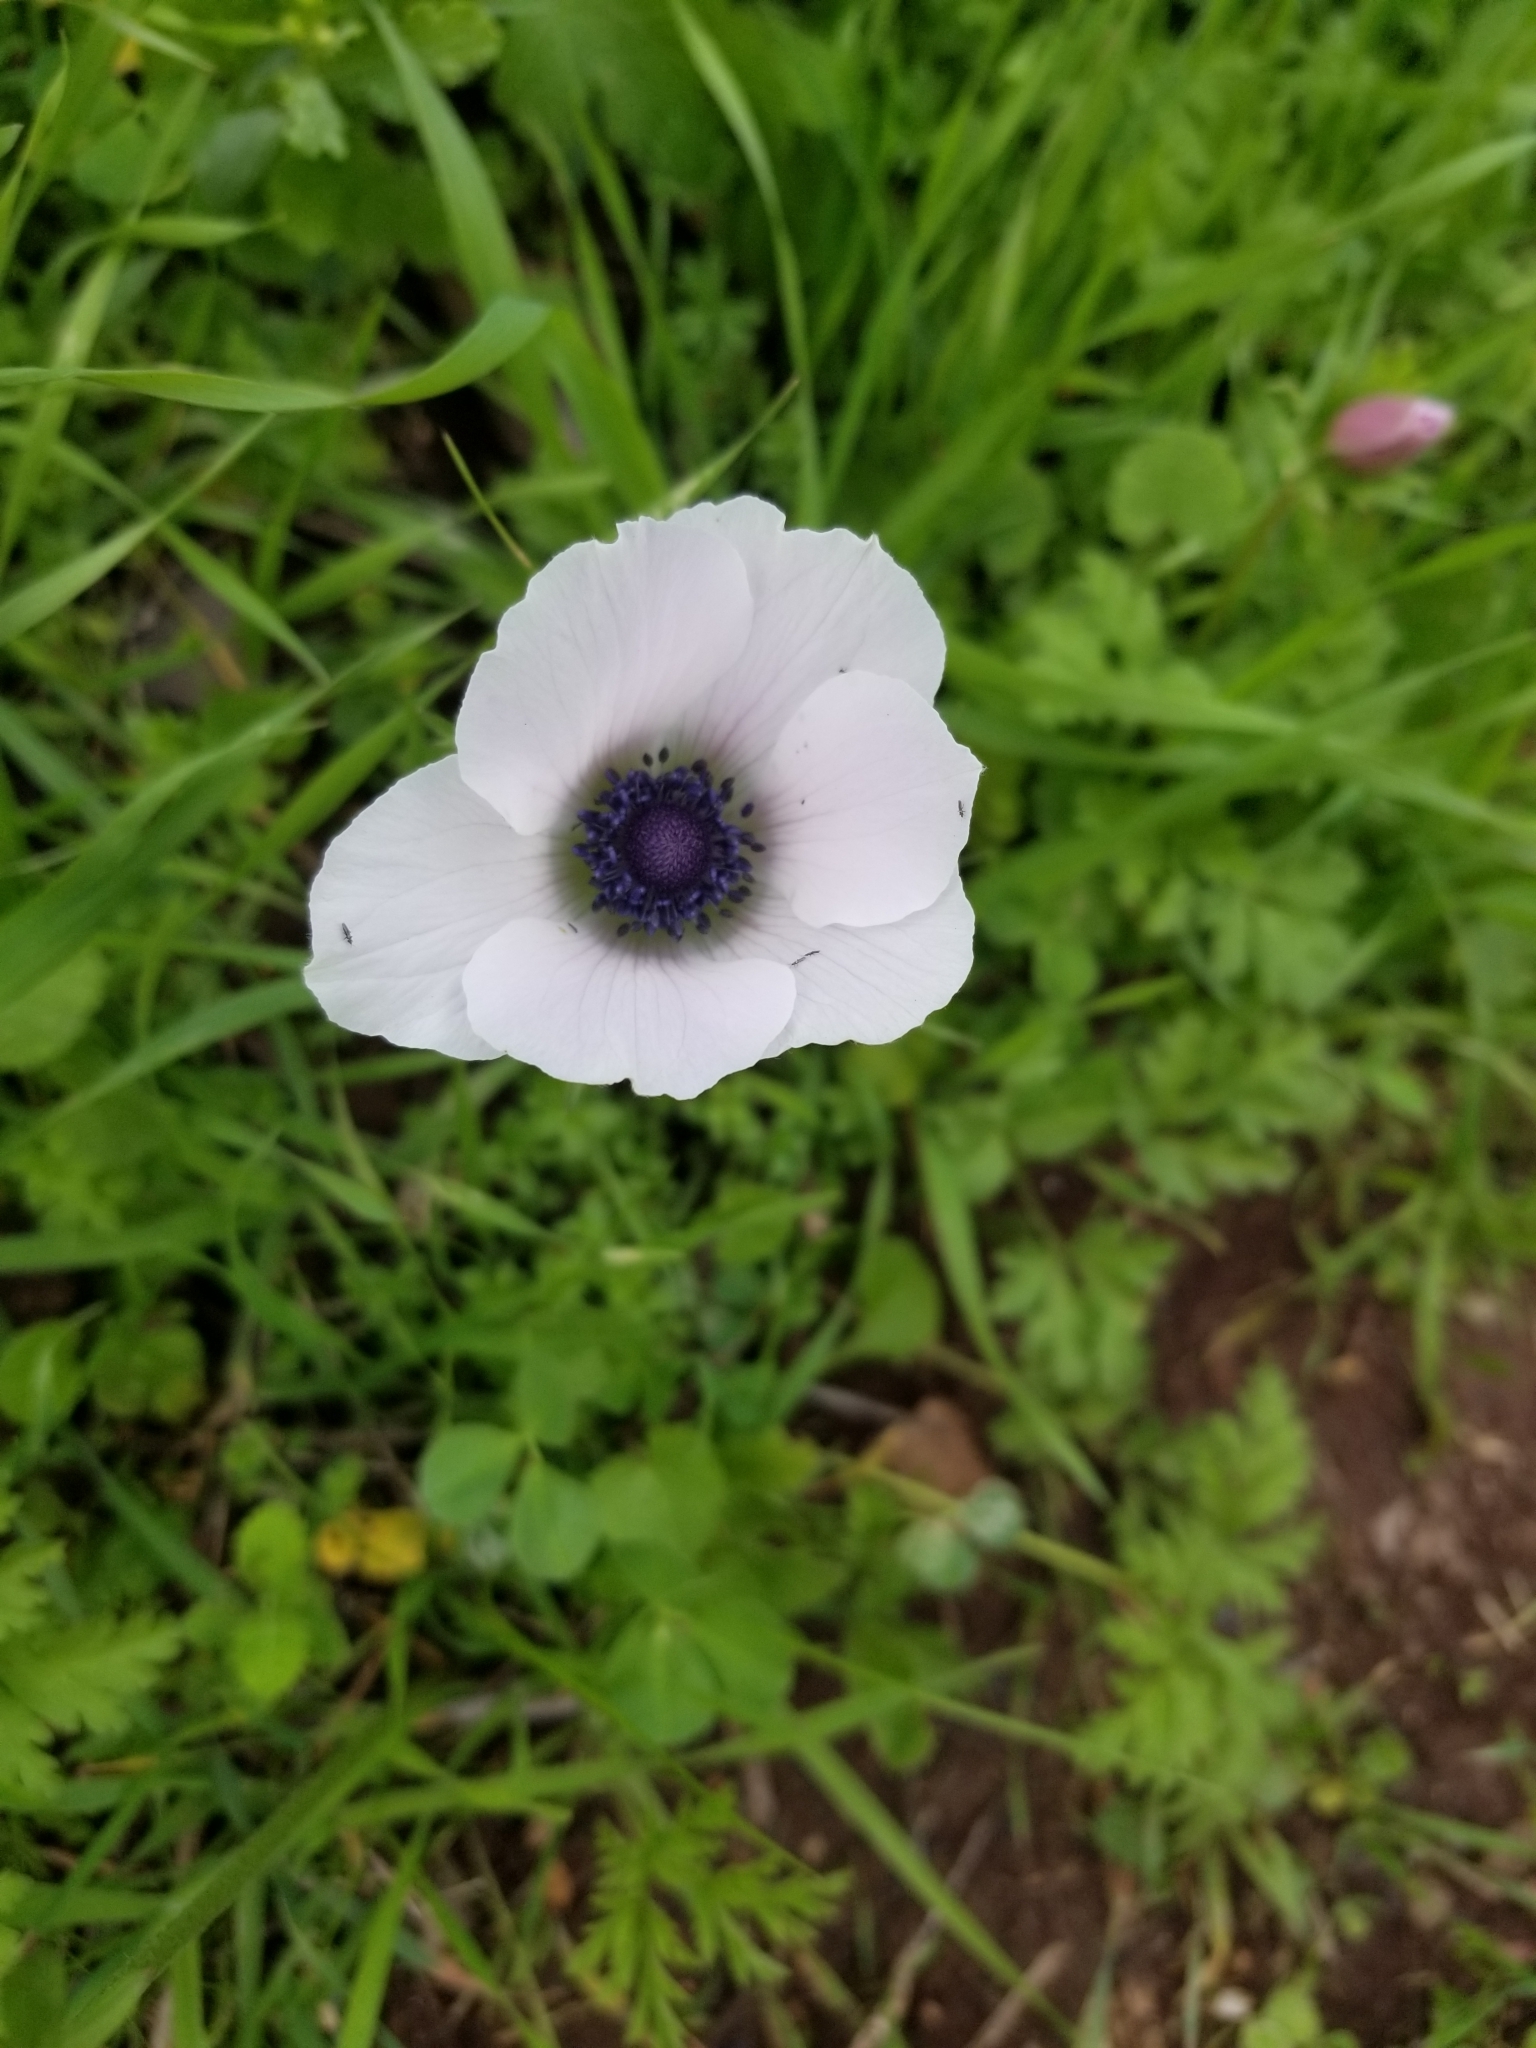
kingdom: Plantae
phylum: Tracheophyta
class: Magnoliopsida
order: Ranunculales
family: Ranunculaceae
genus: Anemone
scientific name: Anemone coronaria
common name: Poppy anemone
